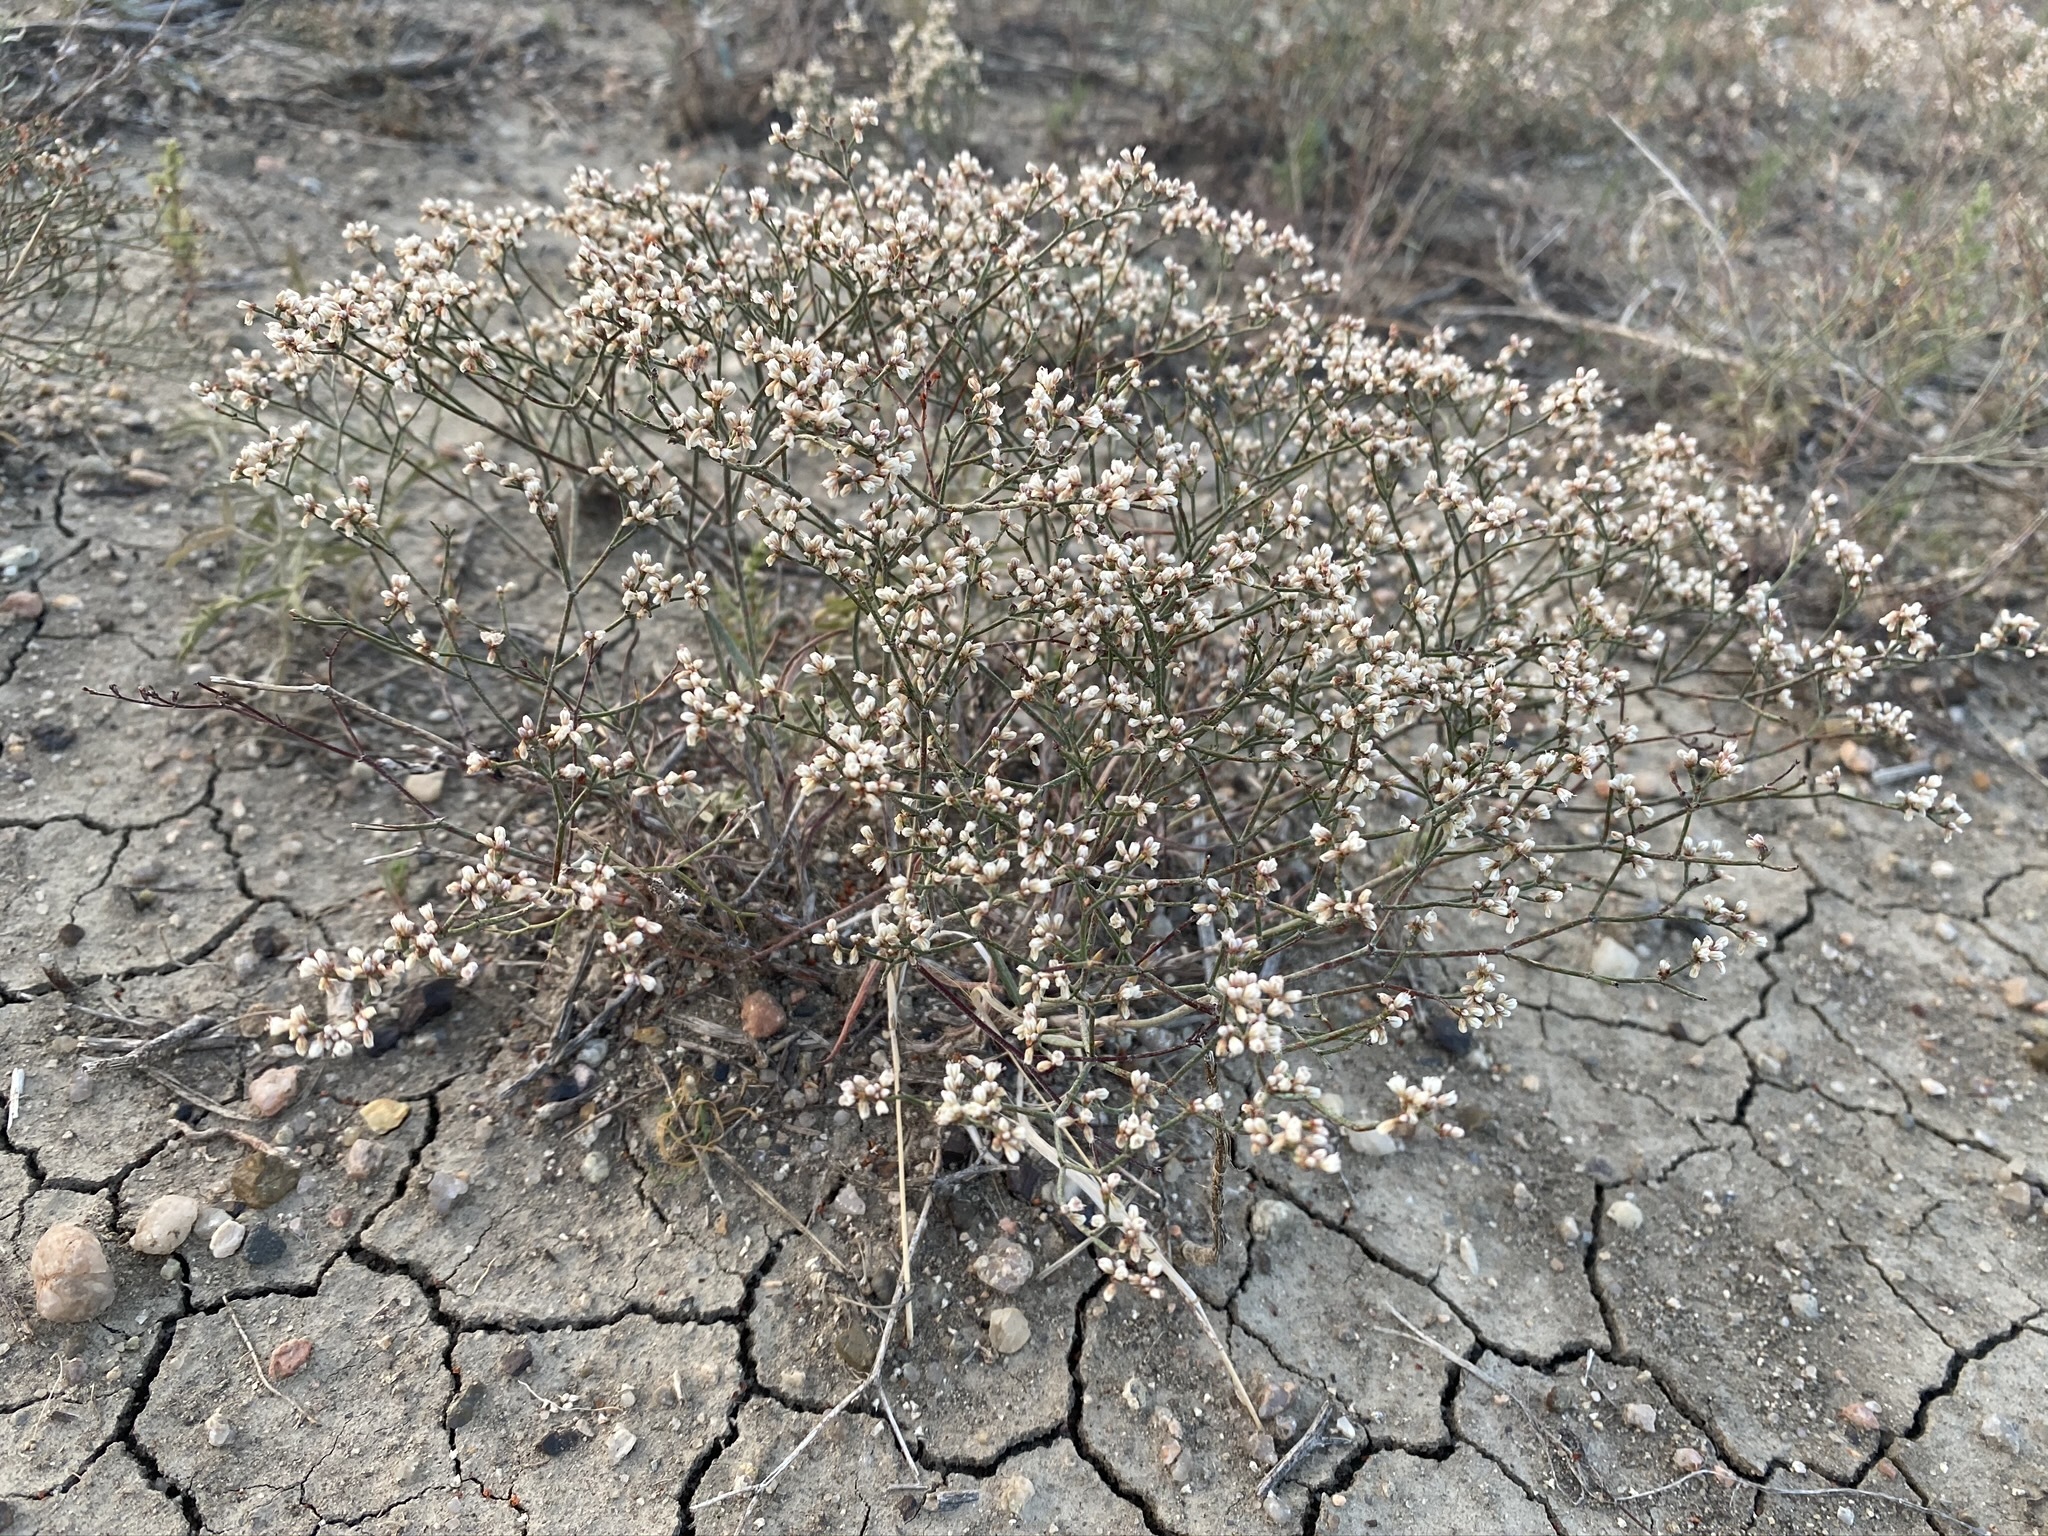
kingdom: Plantae
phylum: Tracheophyta
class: Magnoliopsida
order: Caryophyllales
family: Polygonaceae
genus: Eriogonum
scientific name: Eriogonum effusum
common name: Spreading wild buckwheat
